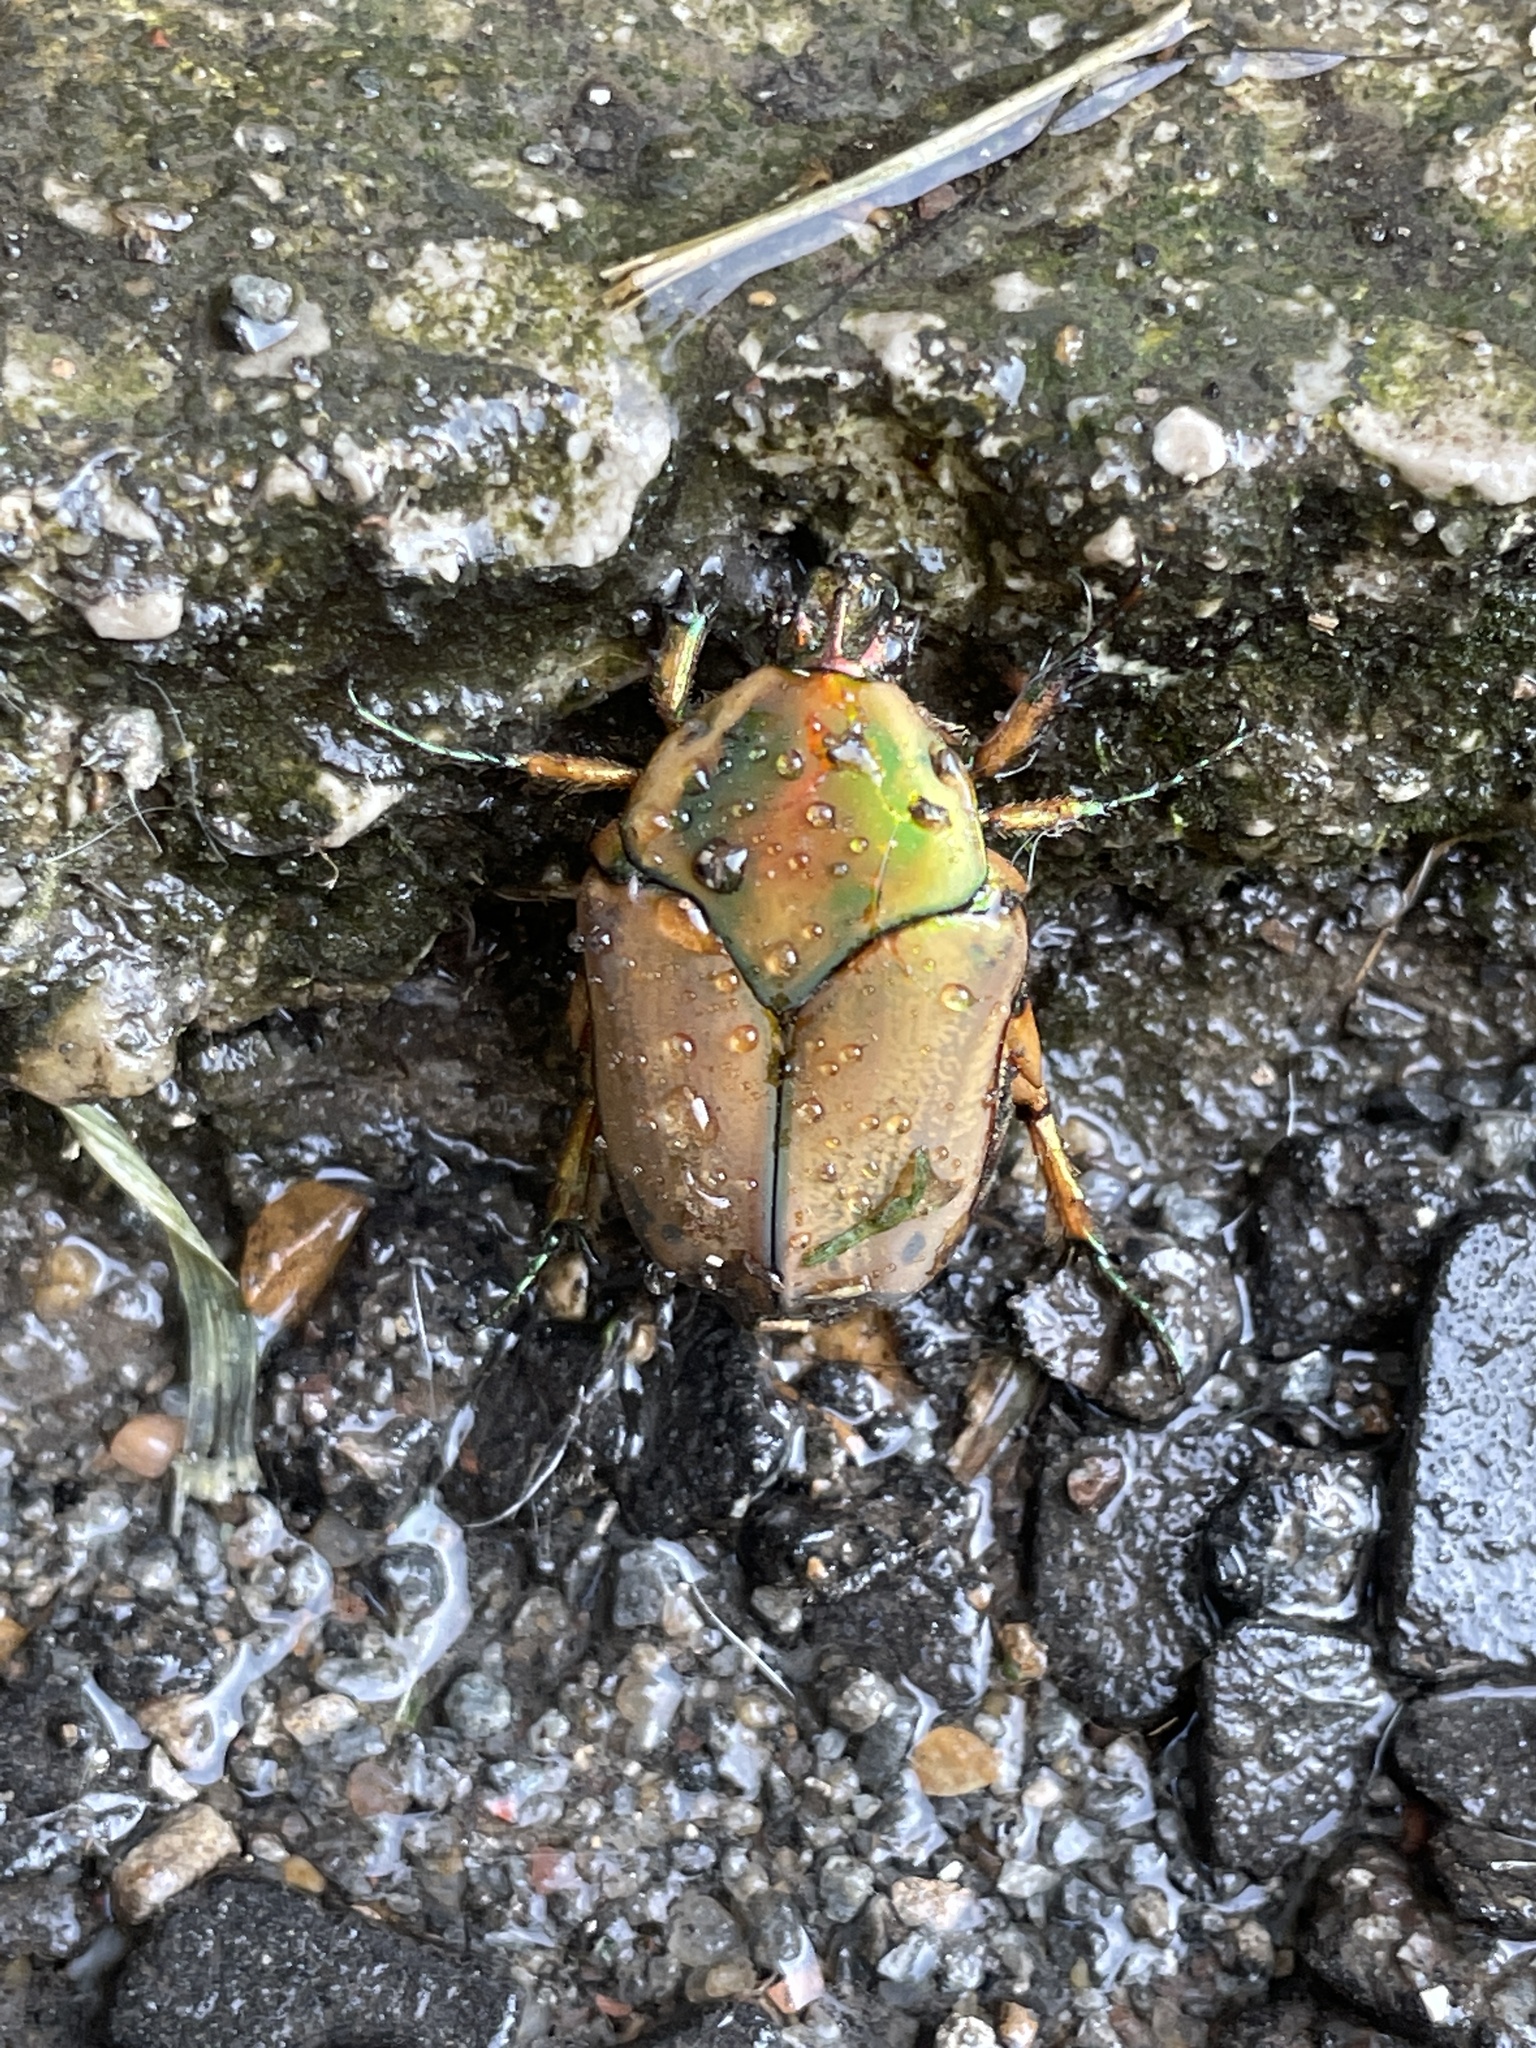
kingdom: Animalia
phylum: Arthropoda
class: Insecta
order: Coleoptera
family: Scarabaeidae
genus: Cotinis
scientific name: Cotinis nitida
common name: Common green june beetle
